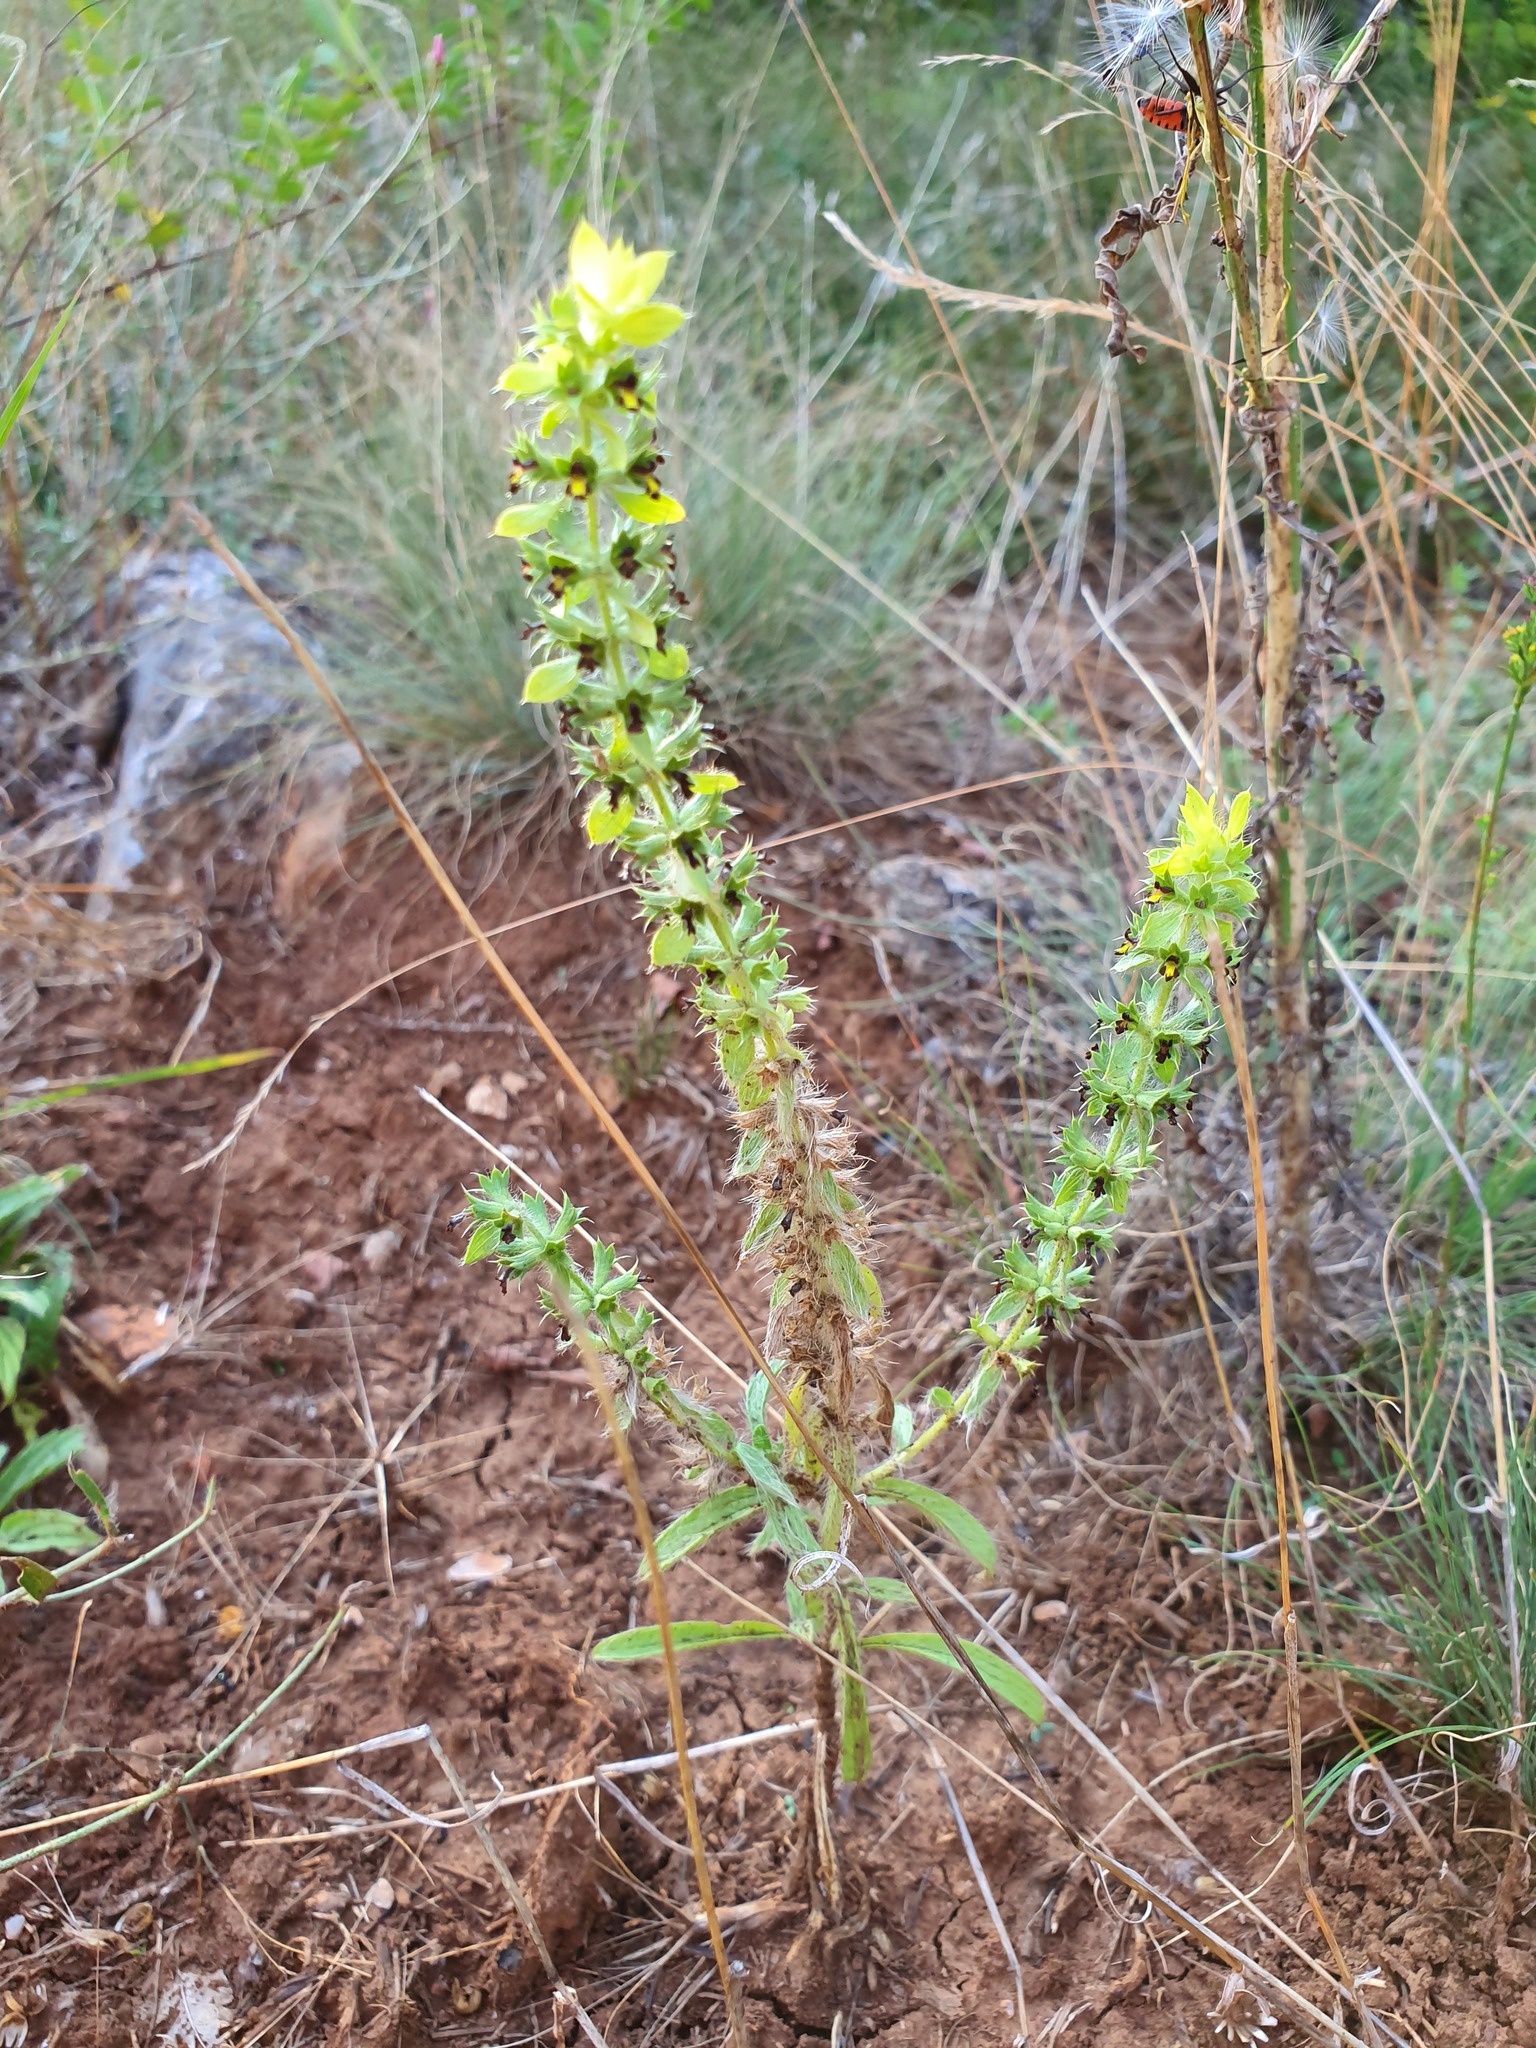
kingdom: Plantae
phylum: Tracheophyta
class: Magnoliopsida
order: Lamiales
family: Lamiaceae
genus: Sideritis
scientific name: Sideritis montana
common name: Mountain ironwort
